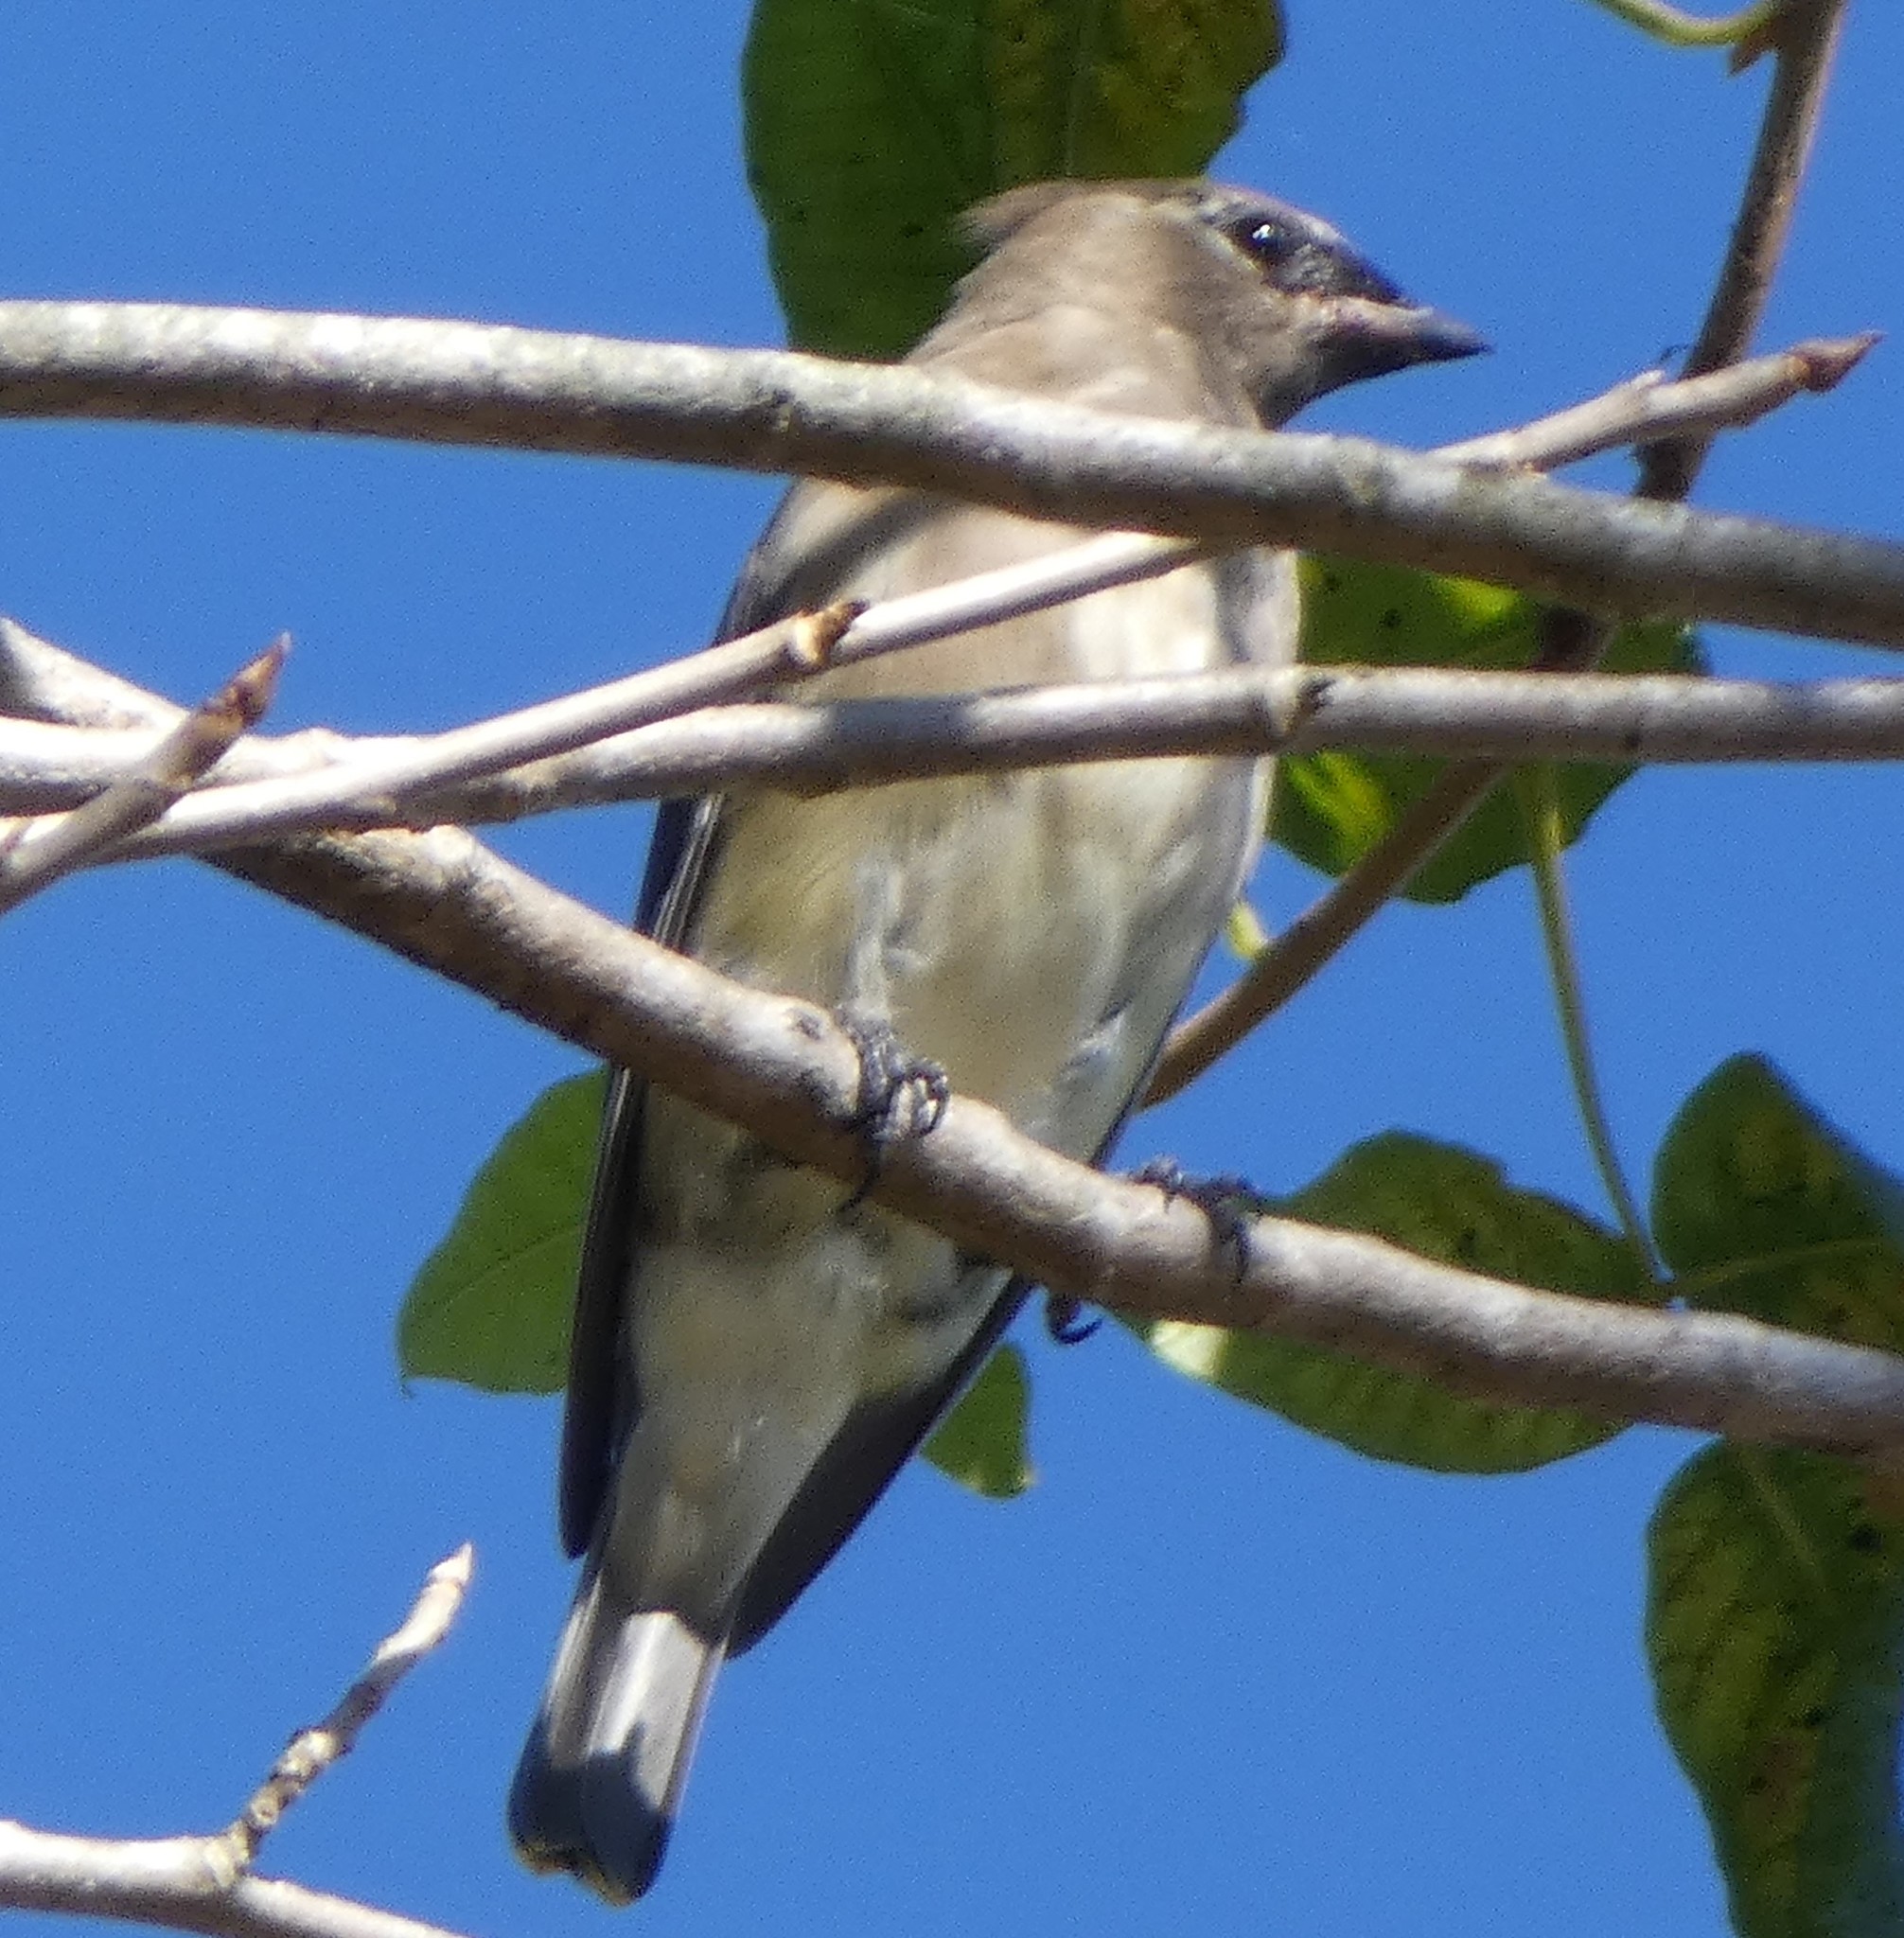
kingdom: Animalia
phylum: Chordata
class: Aves
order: Passeriformes
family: Bombycillidae
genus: Bombycilla
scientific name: Bombycilla cedrorum
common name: Cedar waxwing
